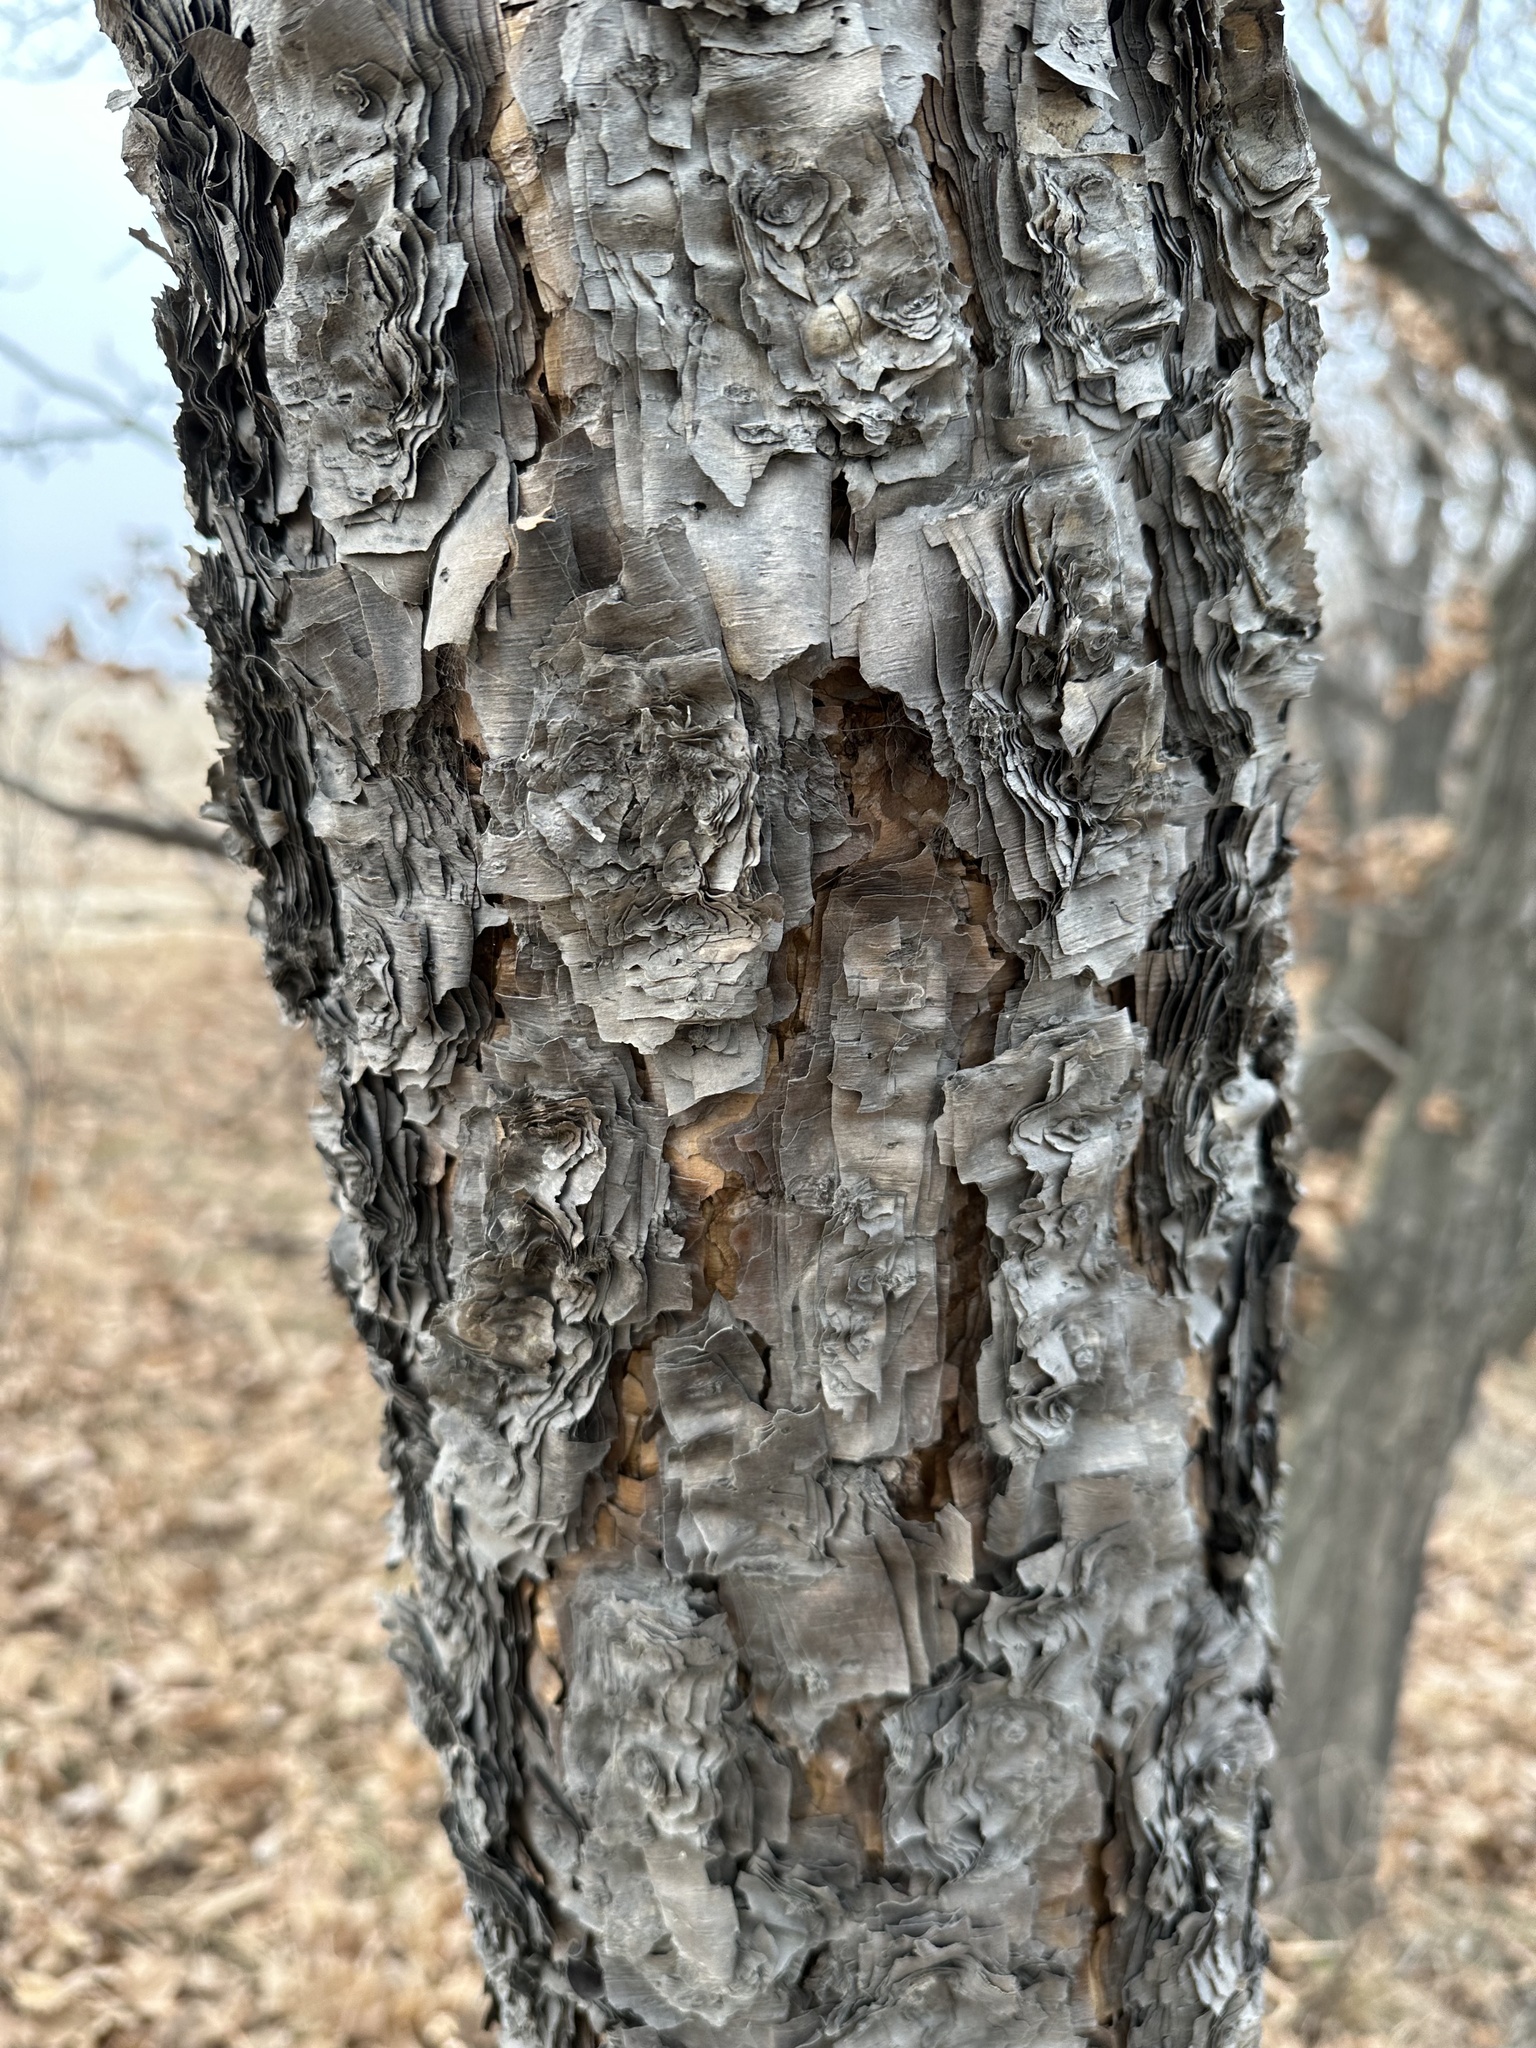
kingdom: Plantae
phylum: Tracheophyta
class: Magnoliopsida
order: Fagales
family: Betulaceae
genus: Betula
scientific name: Betula dauurica
